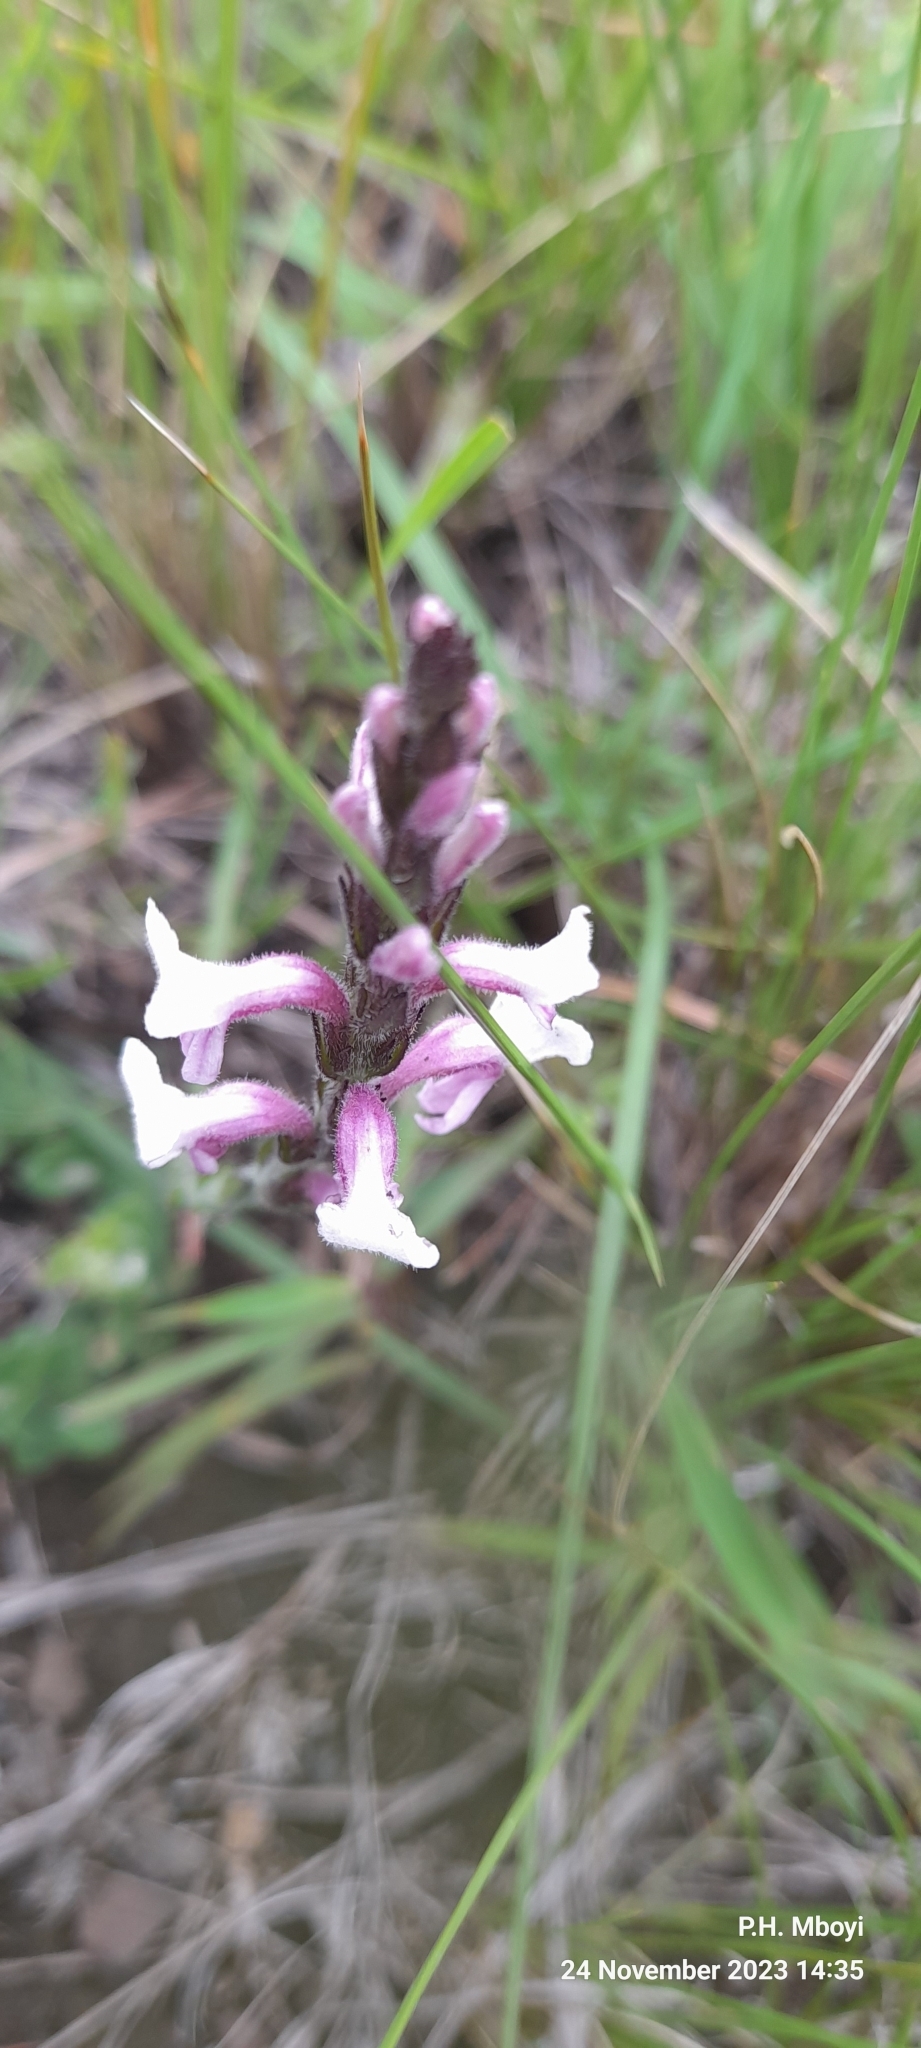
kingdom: Plantae
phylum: Tracheophyta
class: Magnoliopsida
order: Lamiales
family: Orobanchaceae
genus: Striga
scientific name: Striga bilabiata
